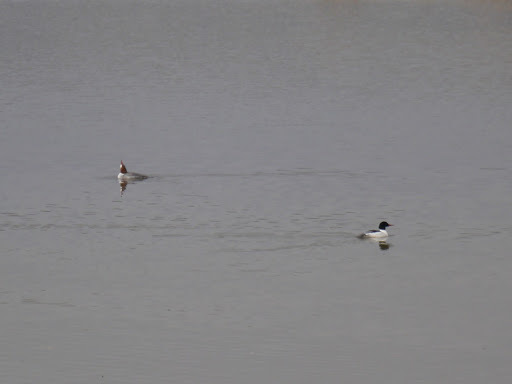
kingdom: Animalia
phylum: Chordata
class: Aves
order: Anseriformes
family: Anatidae
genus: Mergus
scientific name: Mergus merganser
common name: Common merganser
